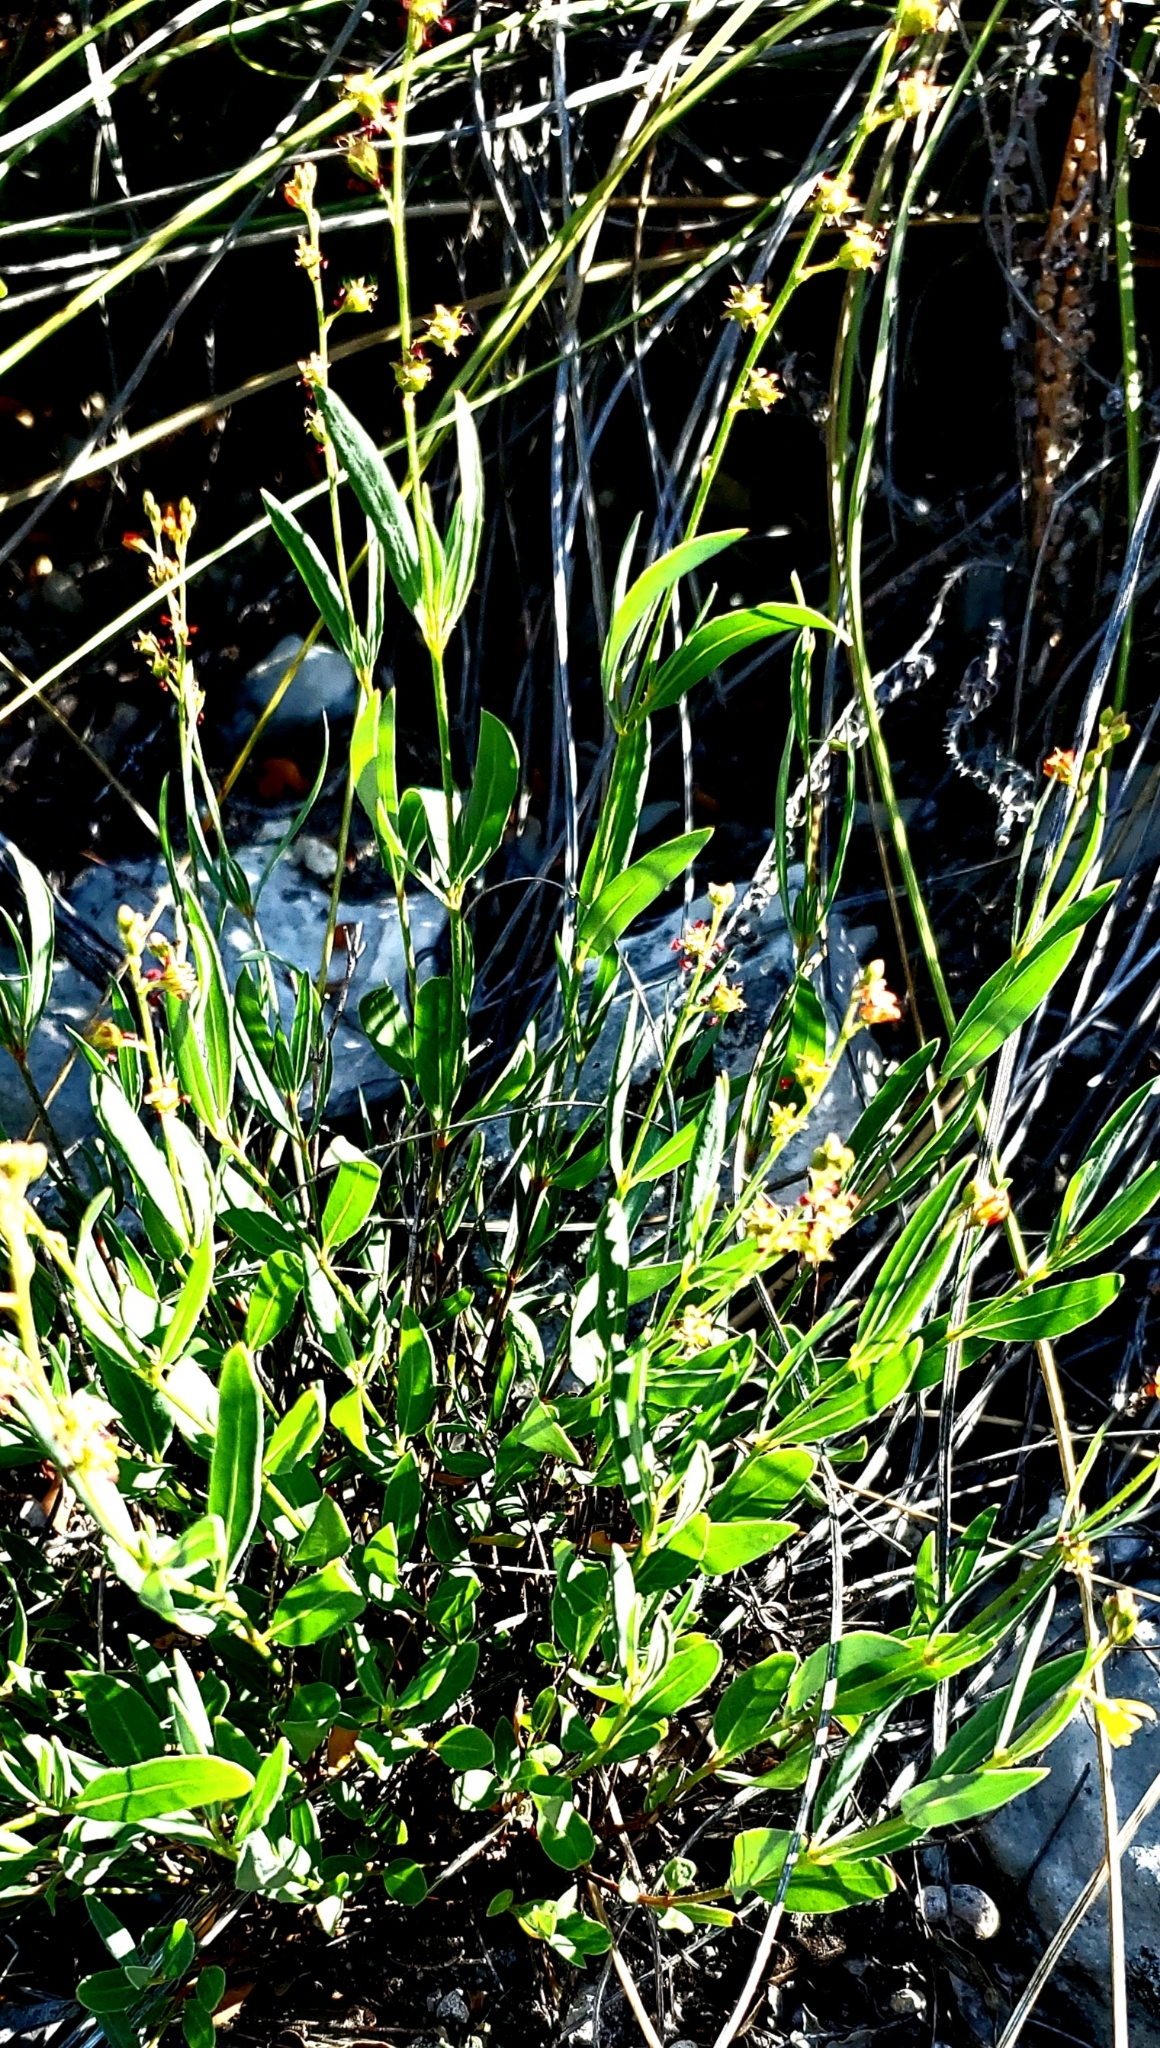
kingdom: Plantae
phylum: Tracheophyta
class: Magnoliopsida
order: Malpighiales
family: Malpighiaceae
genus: Galphimia
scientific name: Galphimia angustifolia
